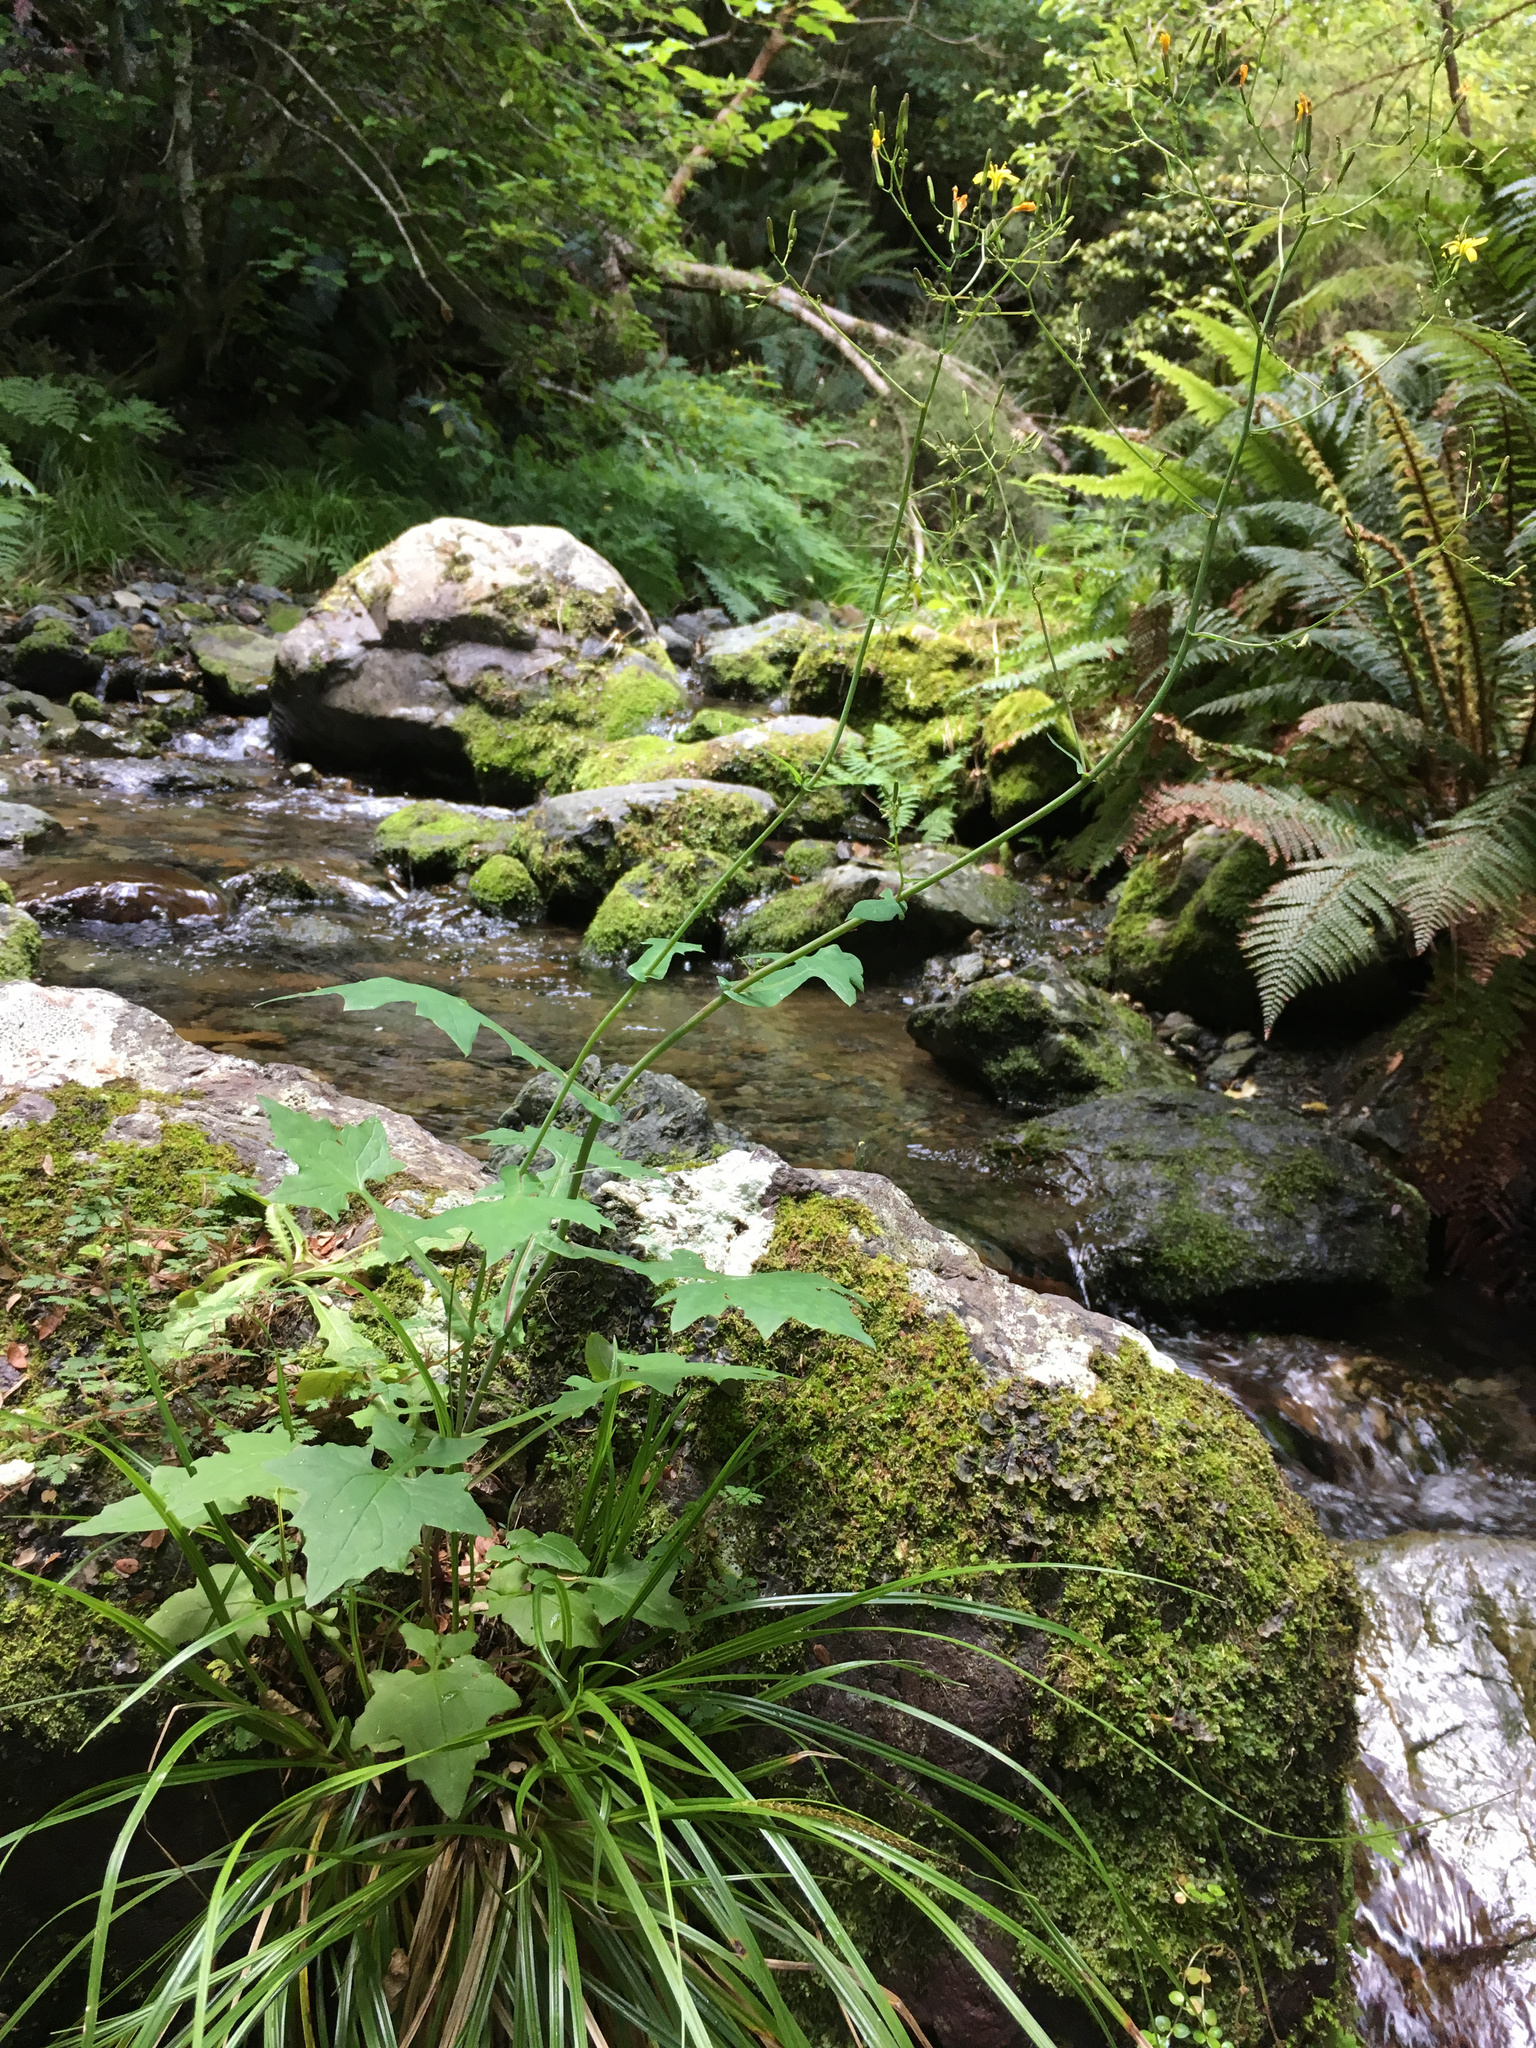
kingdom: Plantae
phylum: Tracheophyta
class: Magnoliopsida
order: Asterales
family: Asteraceae
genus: Mycelis
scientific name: Mycelis muralis
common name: Wall lettuce
